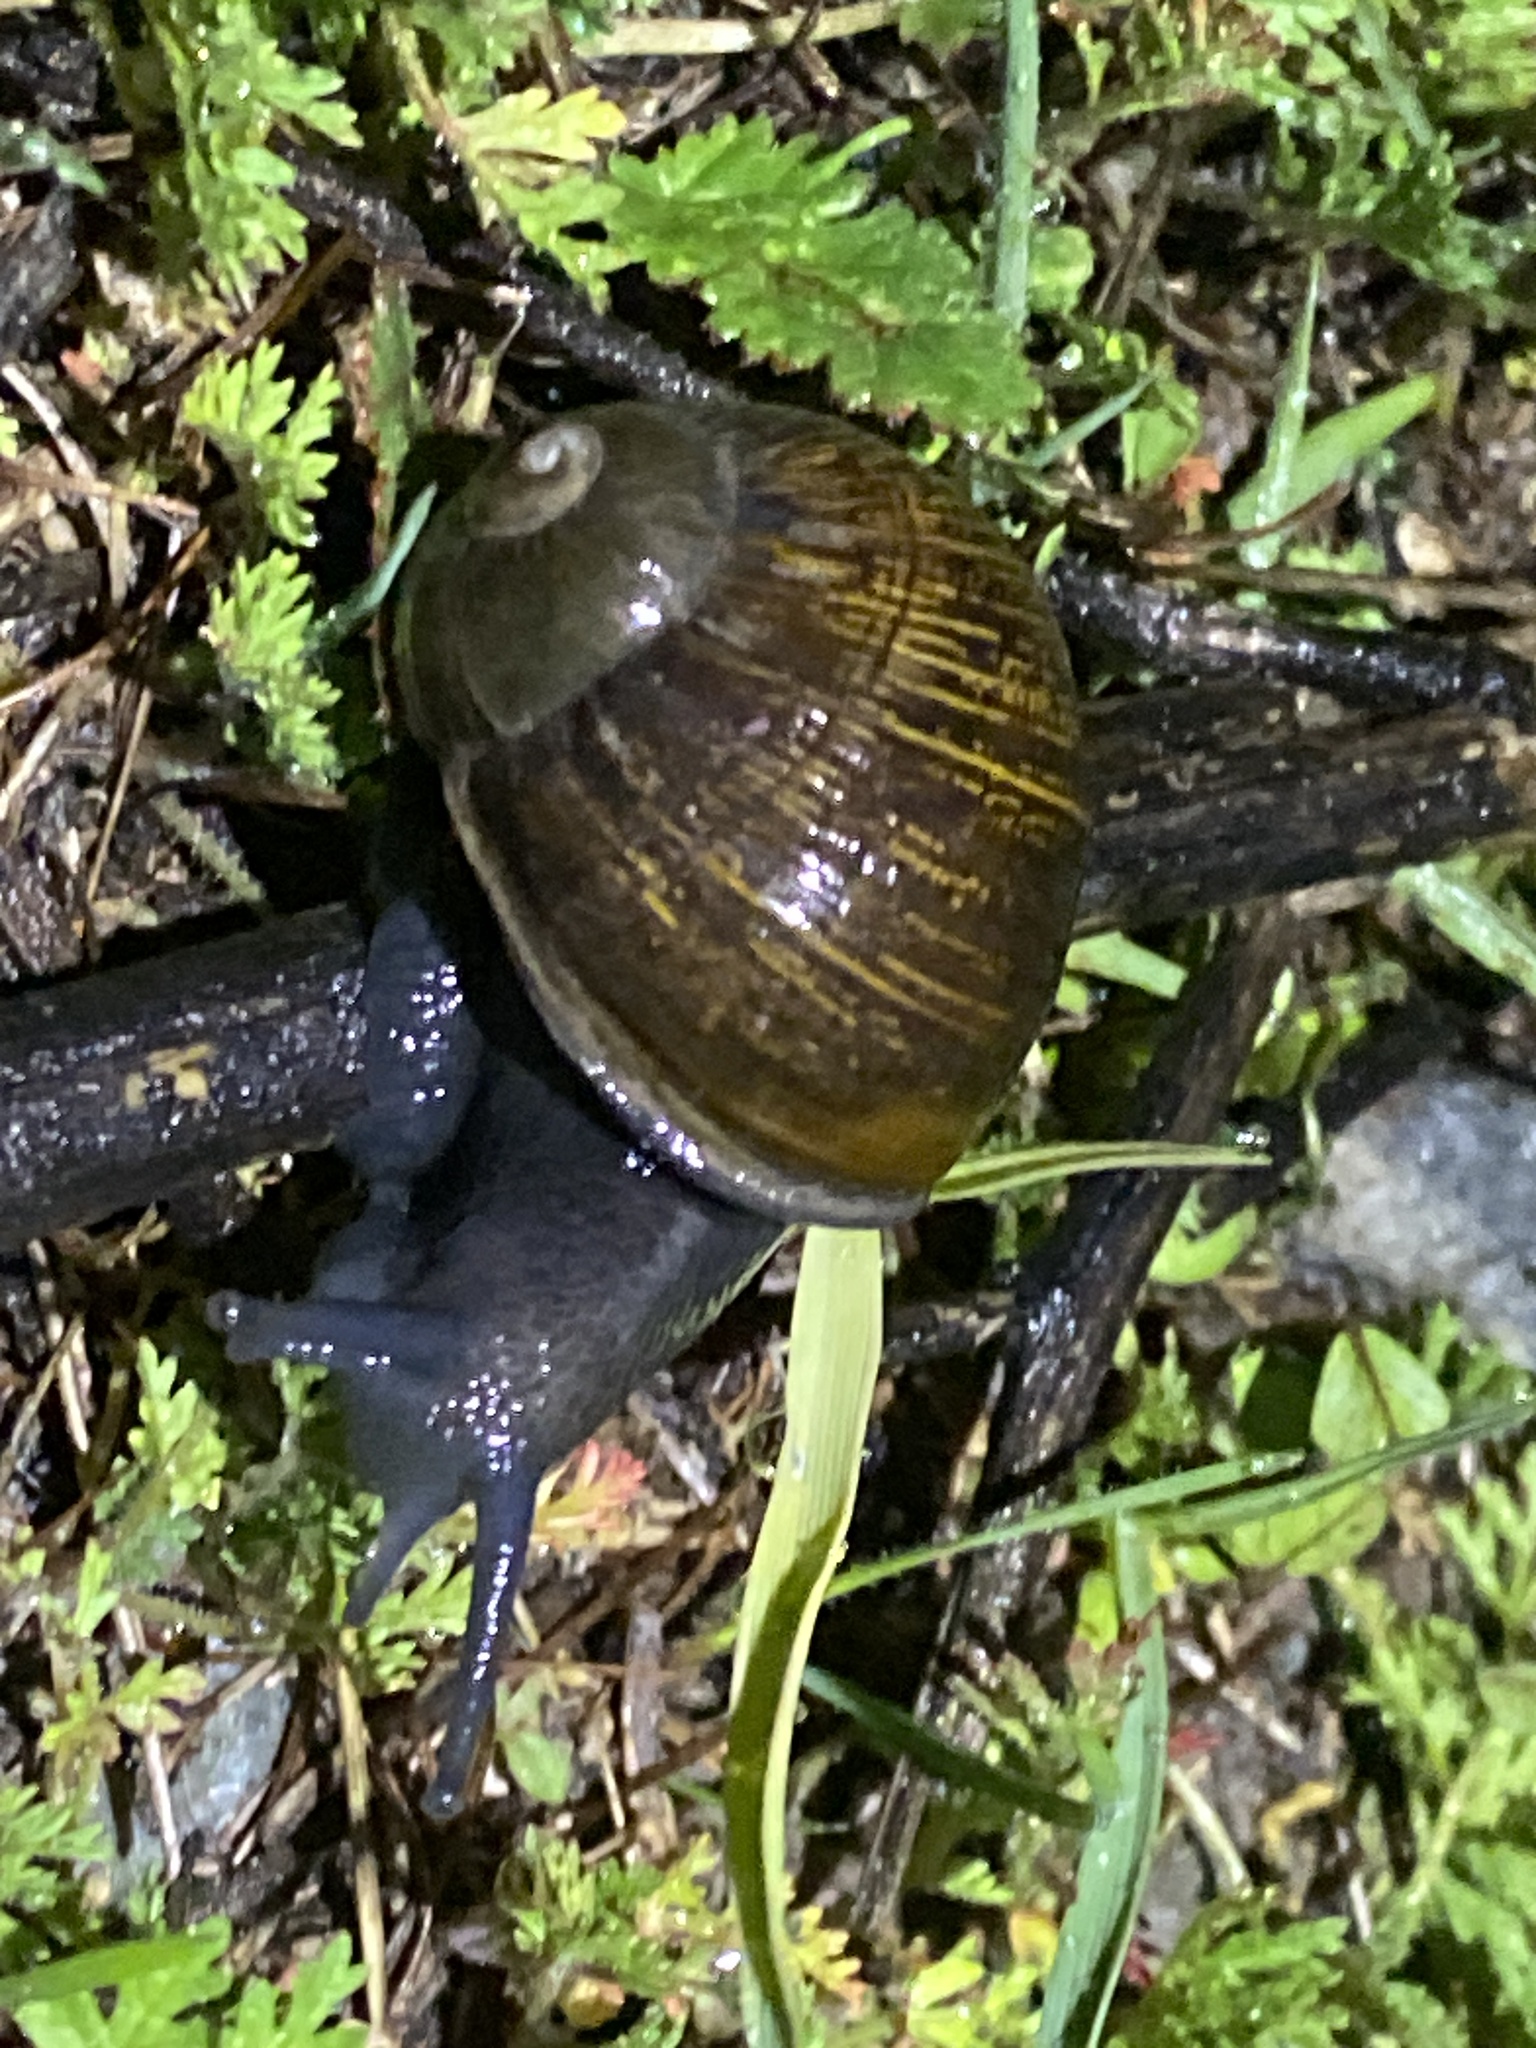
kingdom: Animalia
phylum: Mollusca
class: Gastropoda
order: Stylommatophora
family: Helicidae
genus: Cantareus
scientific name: Cantareus apertus
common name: Green gardensnail
